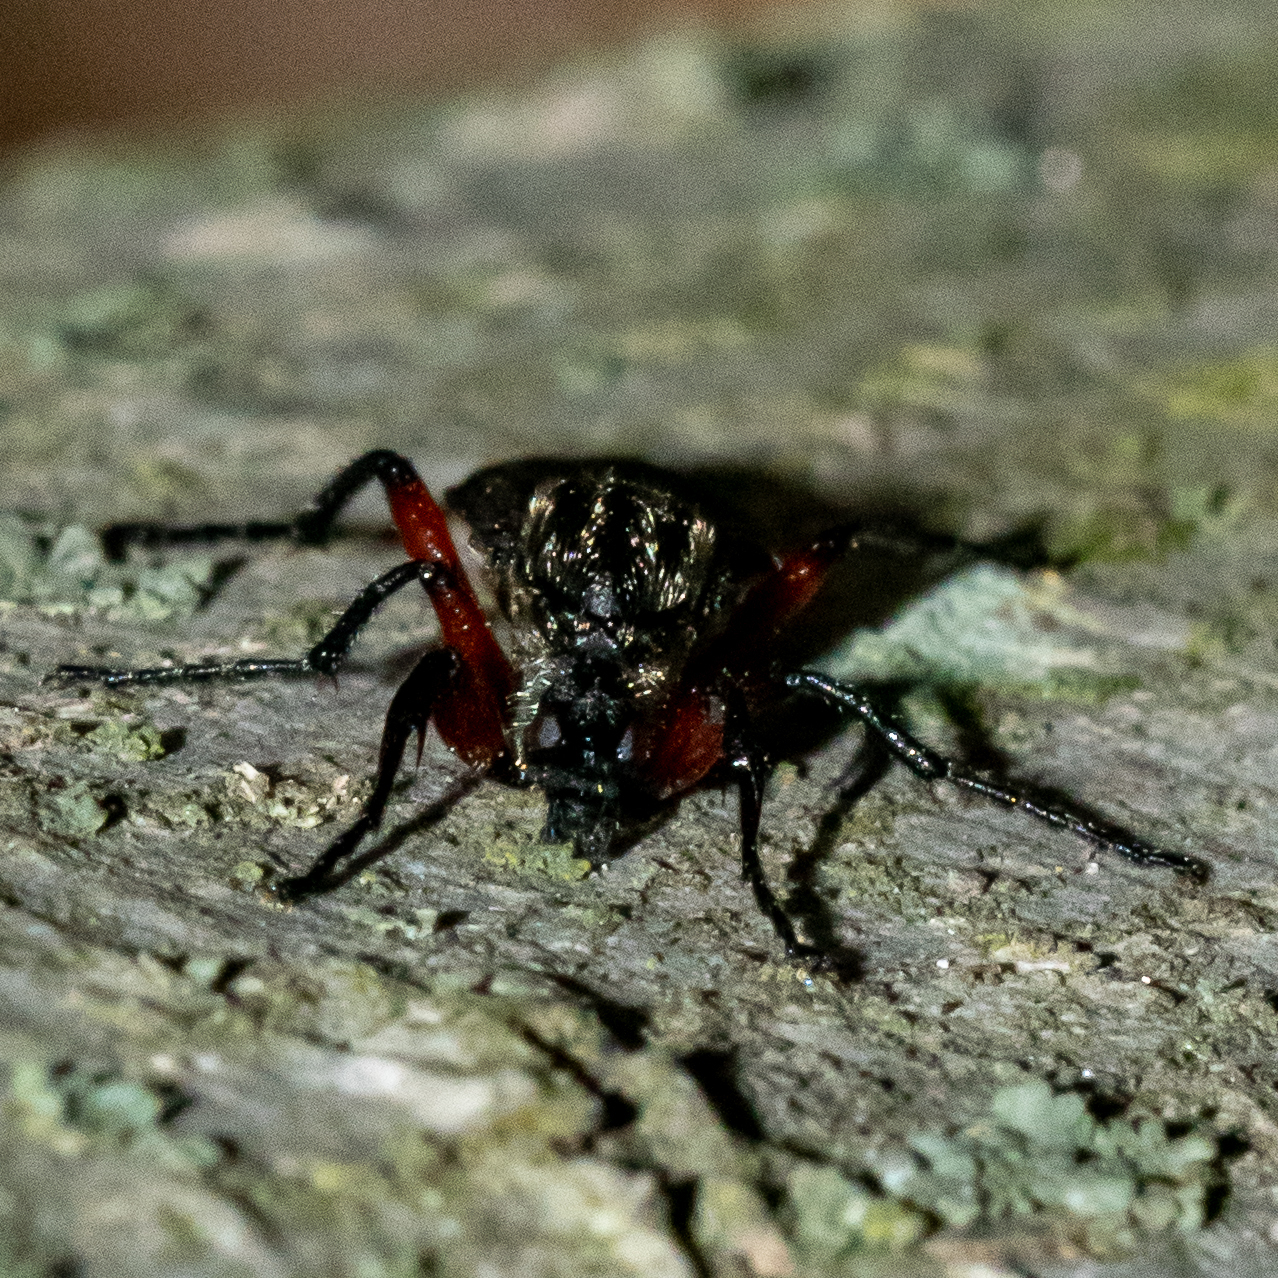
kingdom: Animalia
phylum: Arthropoda
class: Insecta
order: Diptera
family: Bibionidae
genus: Bibio
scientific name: Bibio femoratus
